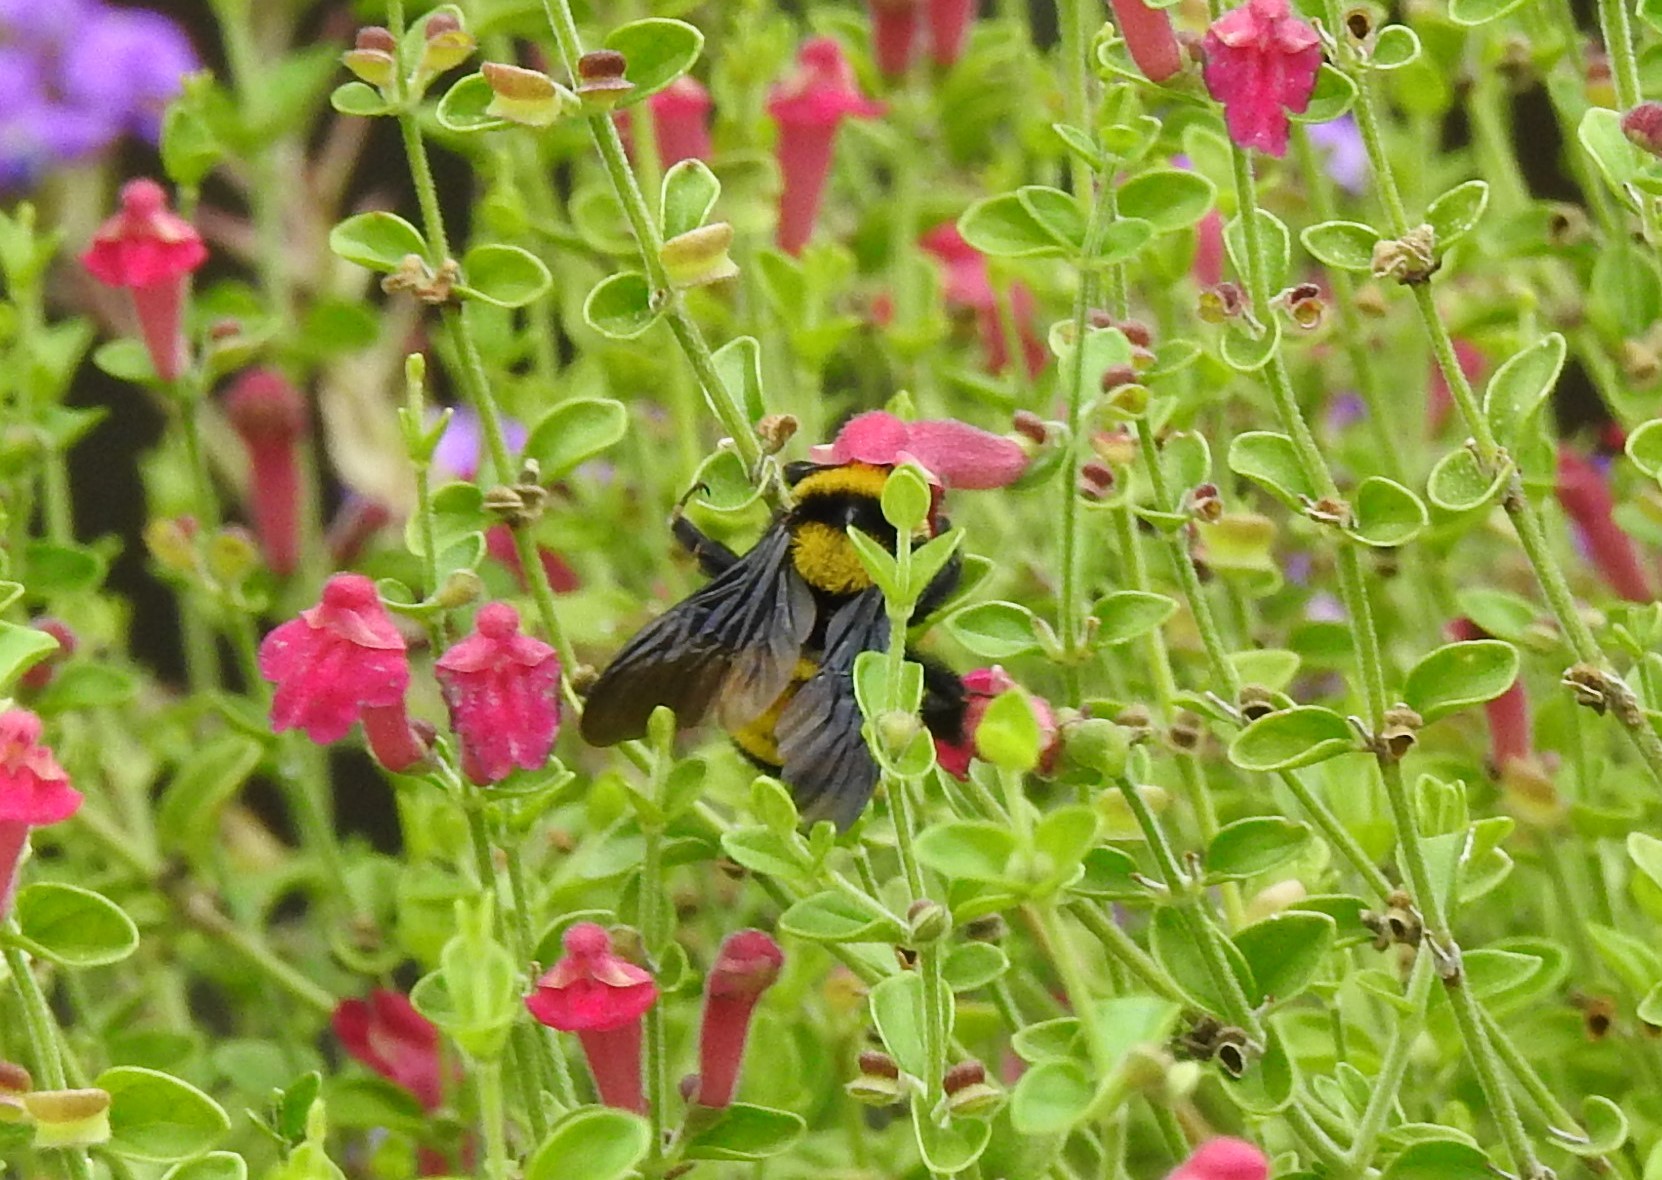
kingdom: Animalia
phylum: Arthropoda
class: Insecta
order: Hymenoptera
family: Apidae
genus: Bombus
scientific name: Bombus sonorus
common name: Sonoran bumble bee
